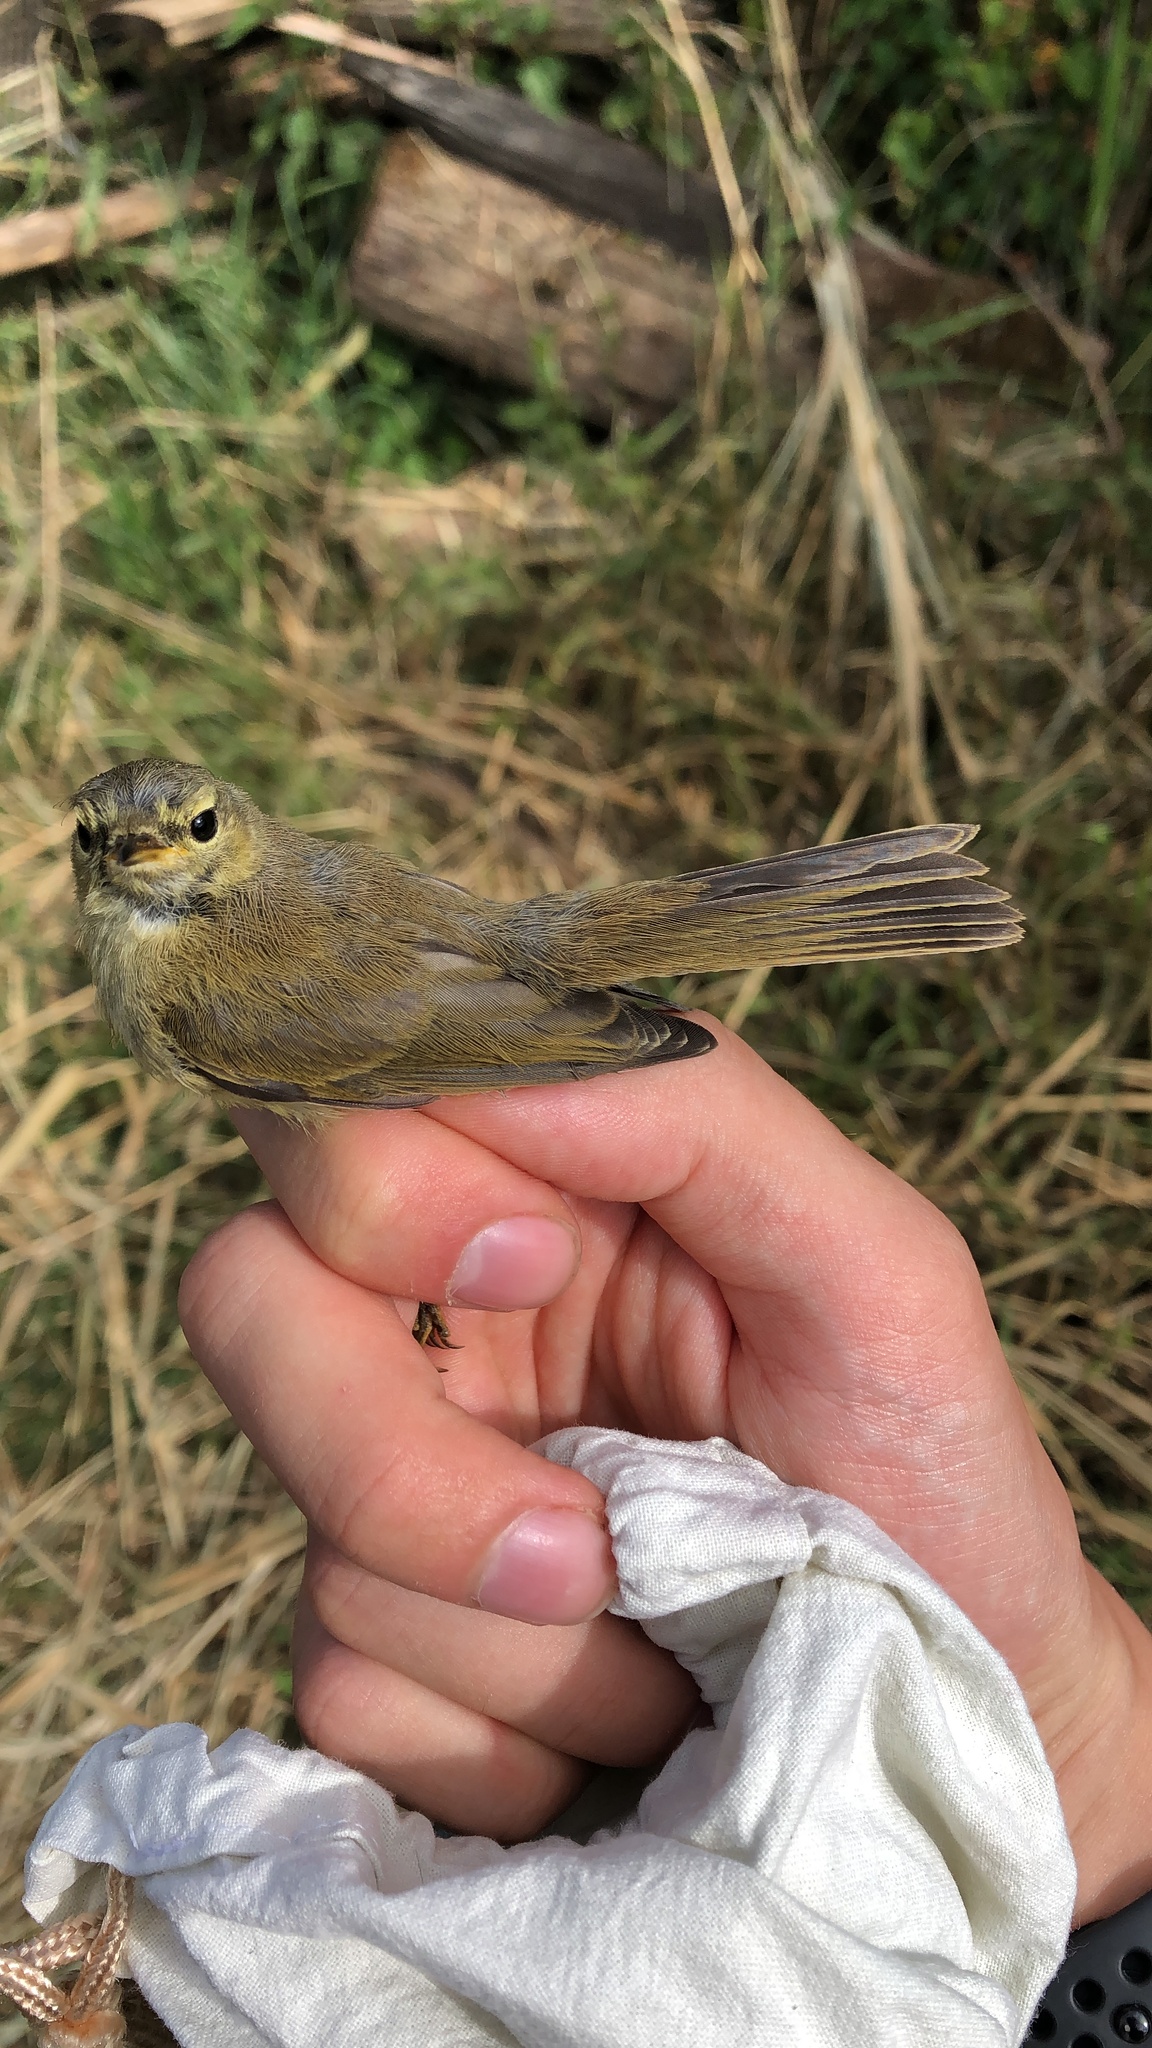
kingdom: Animalia
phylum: Chordata
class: Aves
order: Passeriformes
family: Phylloscopidae
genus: Phylloscopus
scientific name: Phylloscopus collybita
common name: Common chiffchaff
